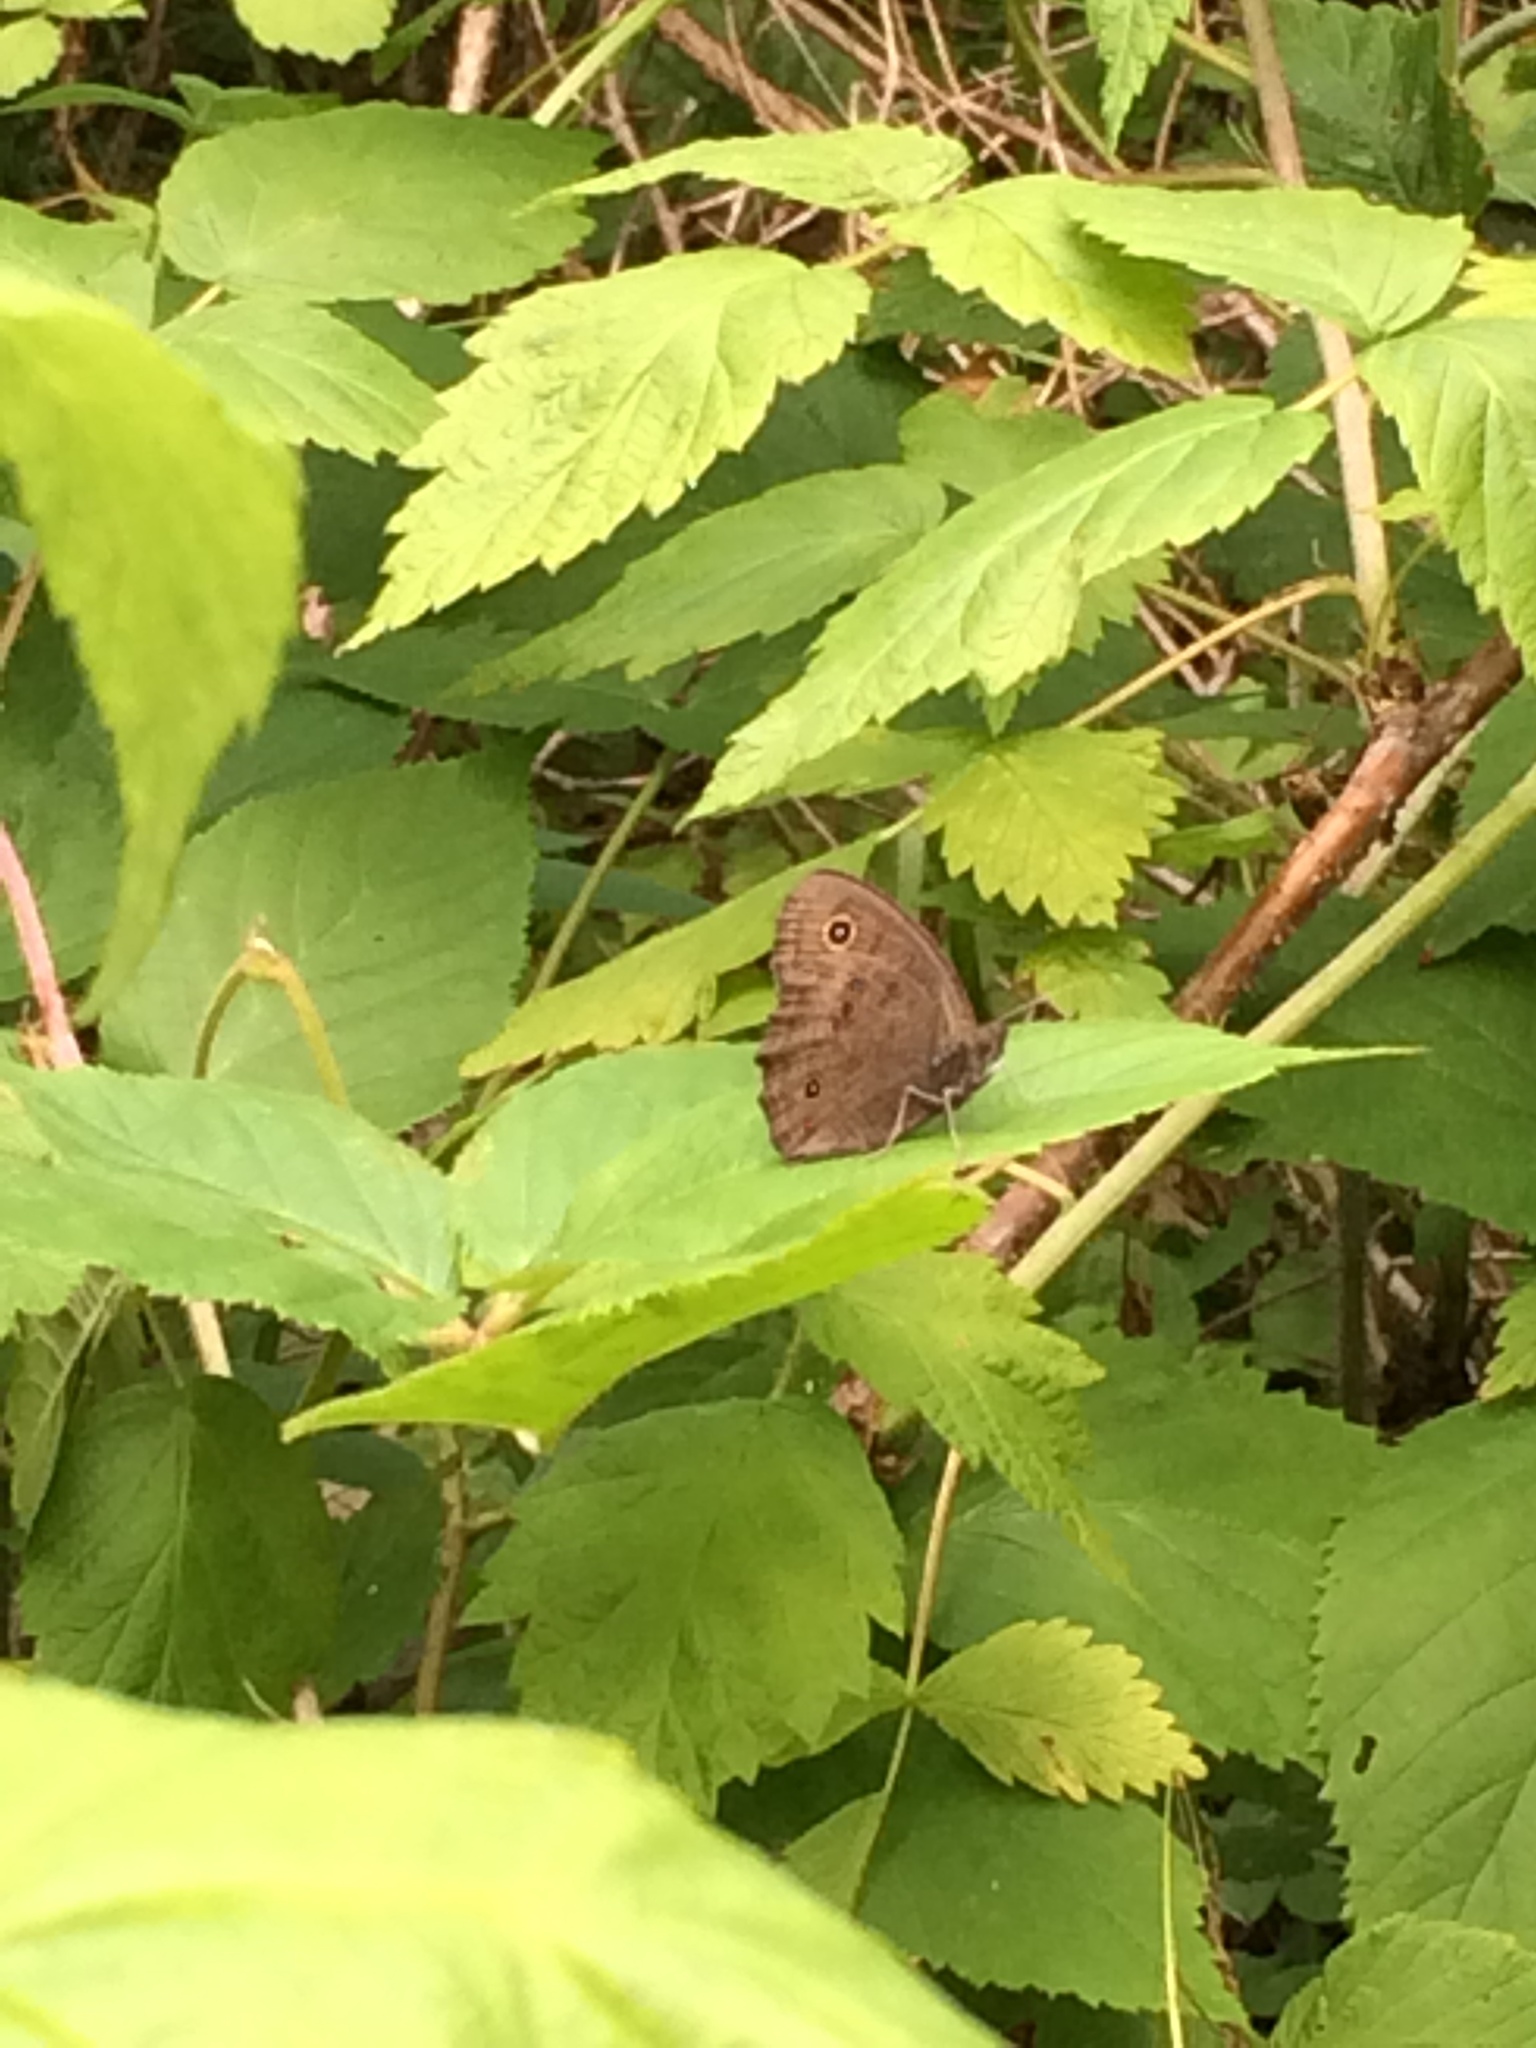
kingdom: Animalia
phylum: Arthropoda
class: Insecta
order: Lepidoptera
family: Nymphalidae
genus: Cercyonis
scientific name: Cercyonis pegala
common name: Common wood-nymph
